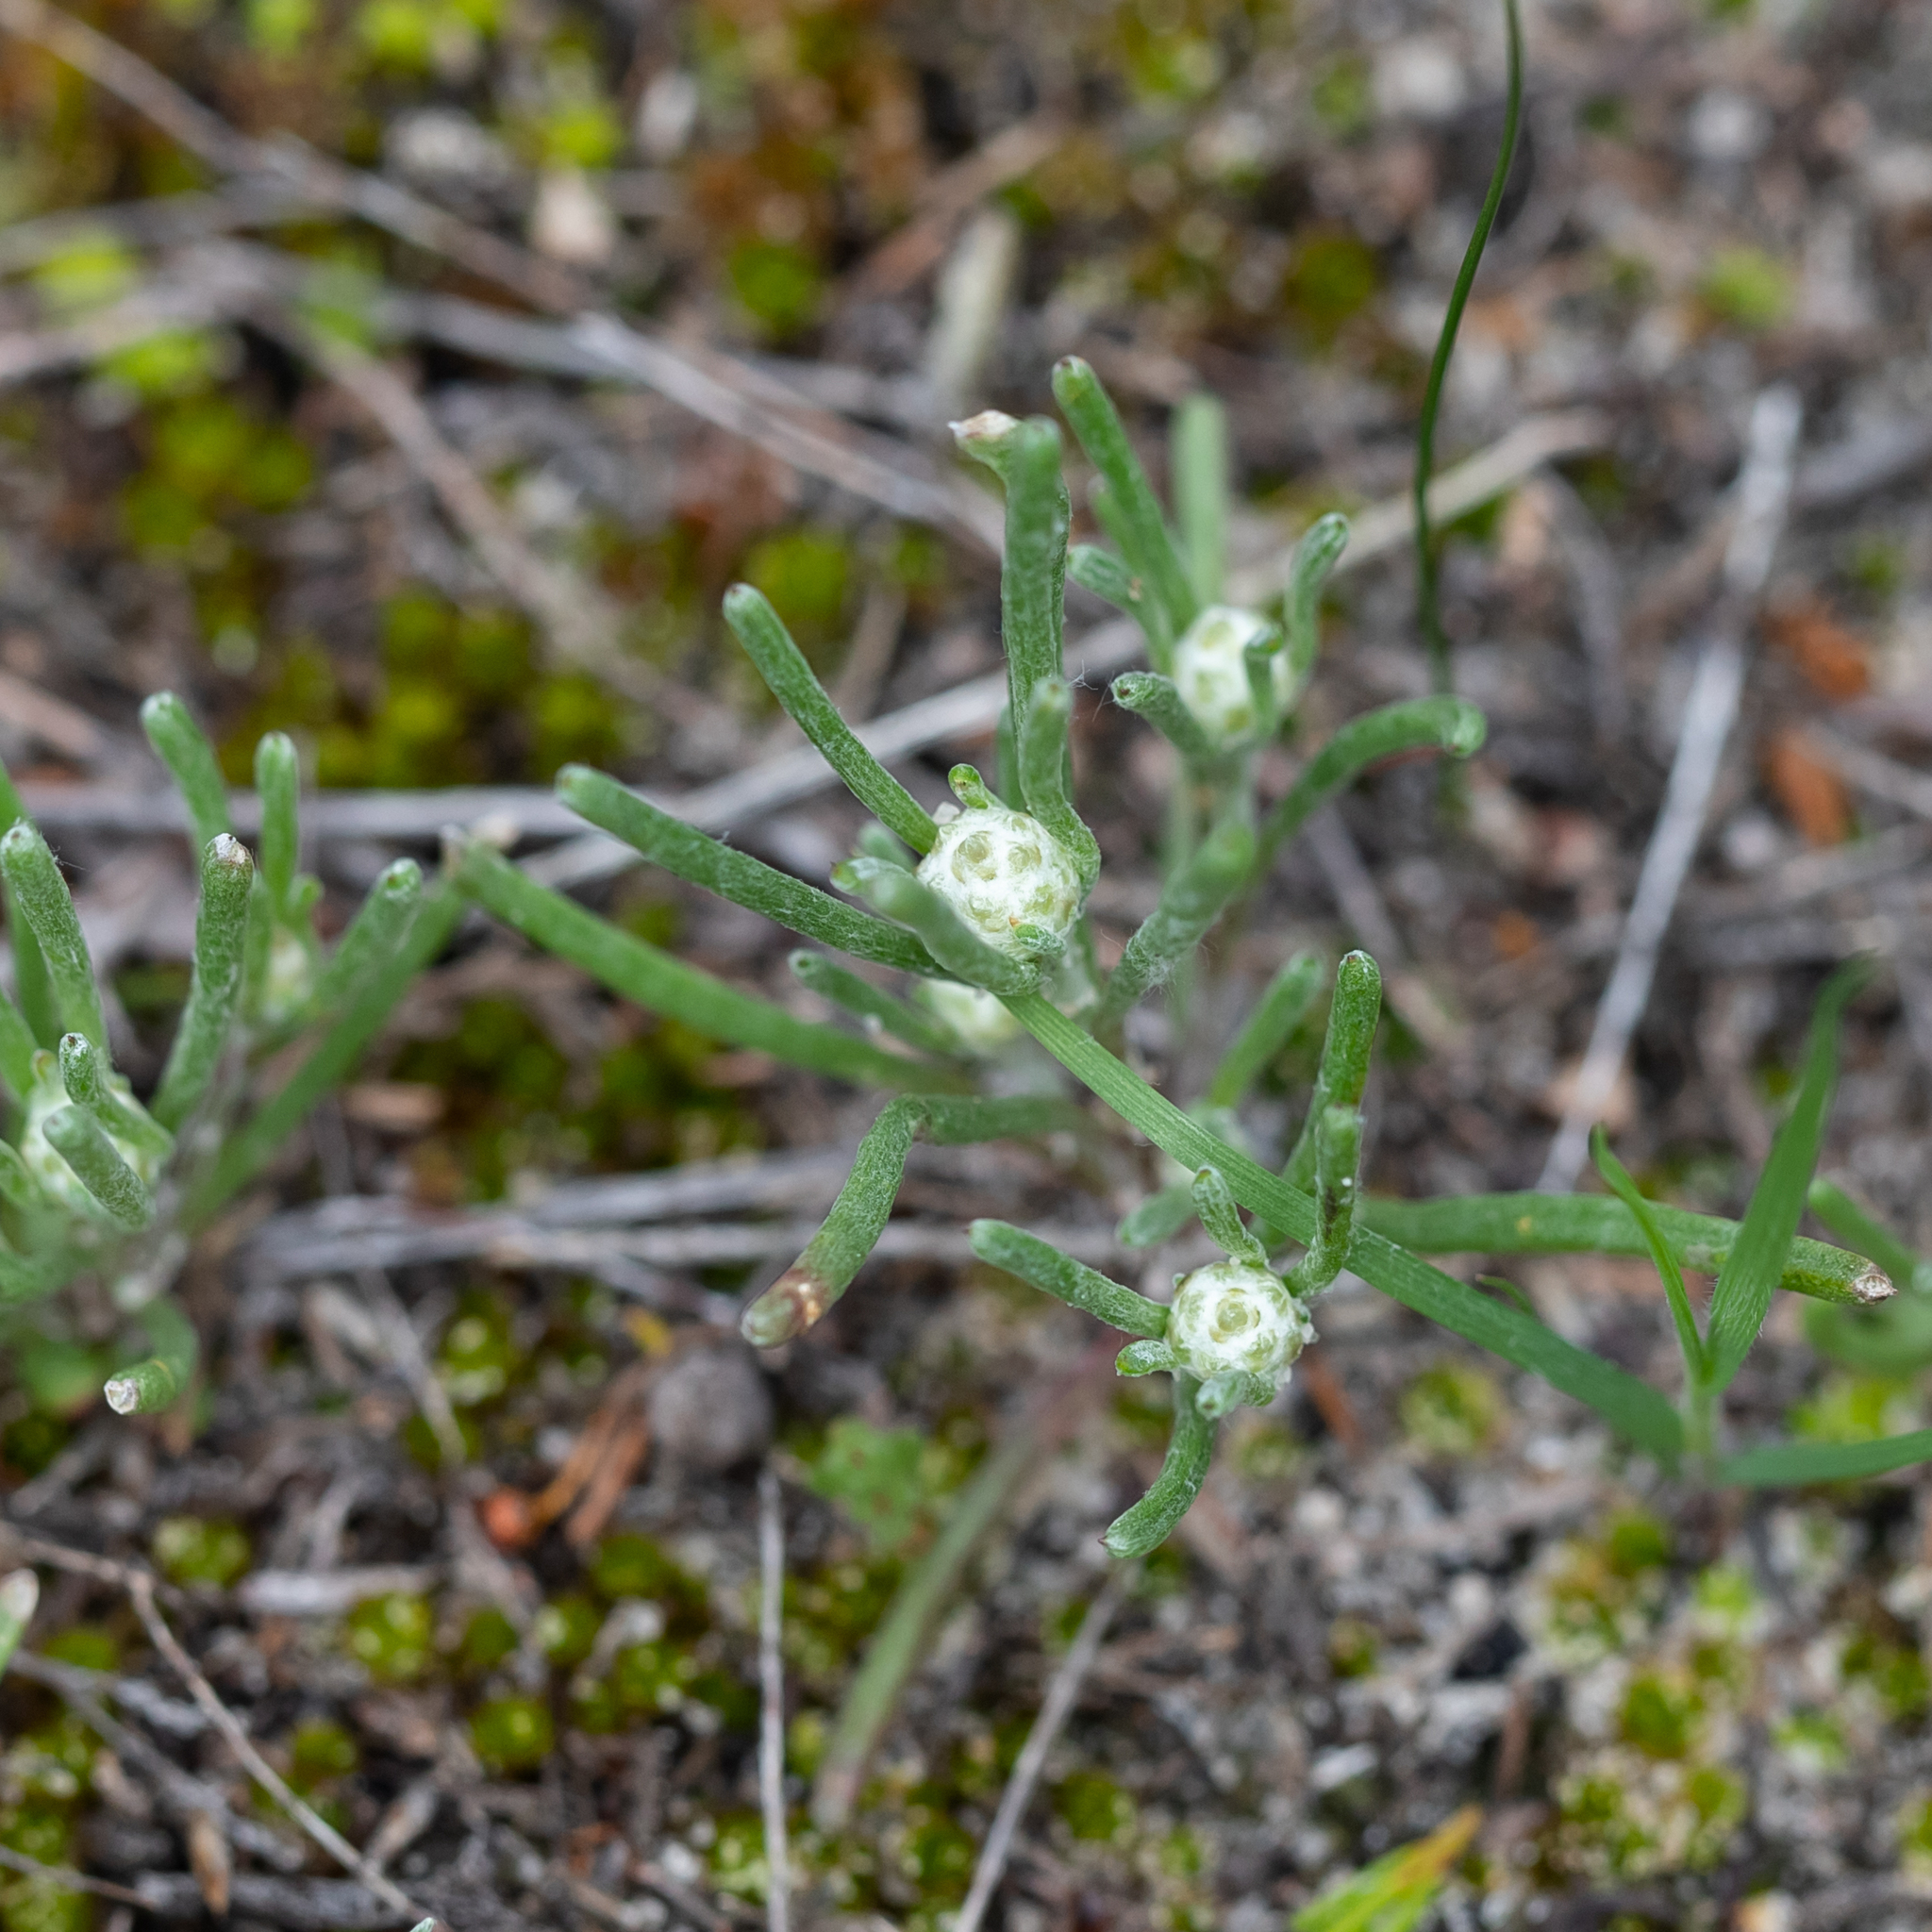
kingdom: Plantae
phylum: Tracheophyta
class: Magnoliopsida
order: Asterales
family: Asteraceae
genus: Blennospora
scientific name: Blennospora drummondii
